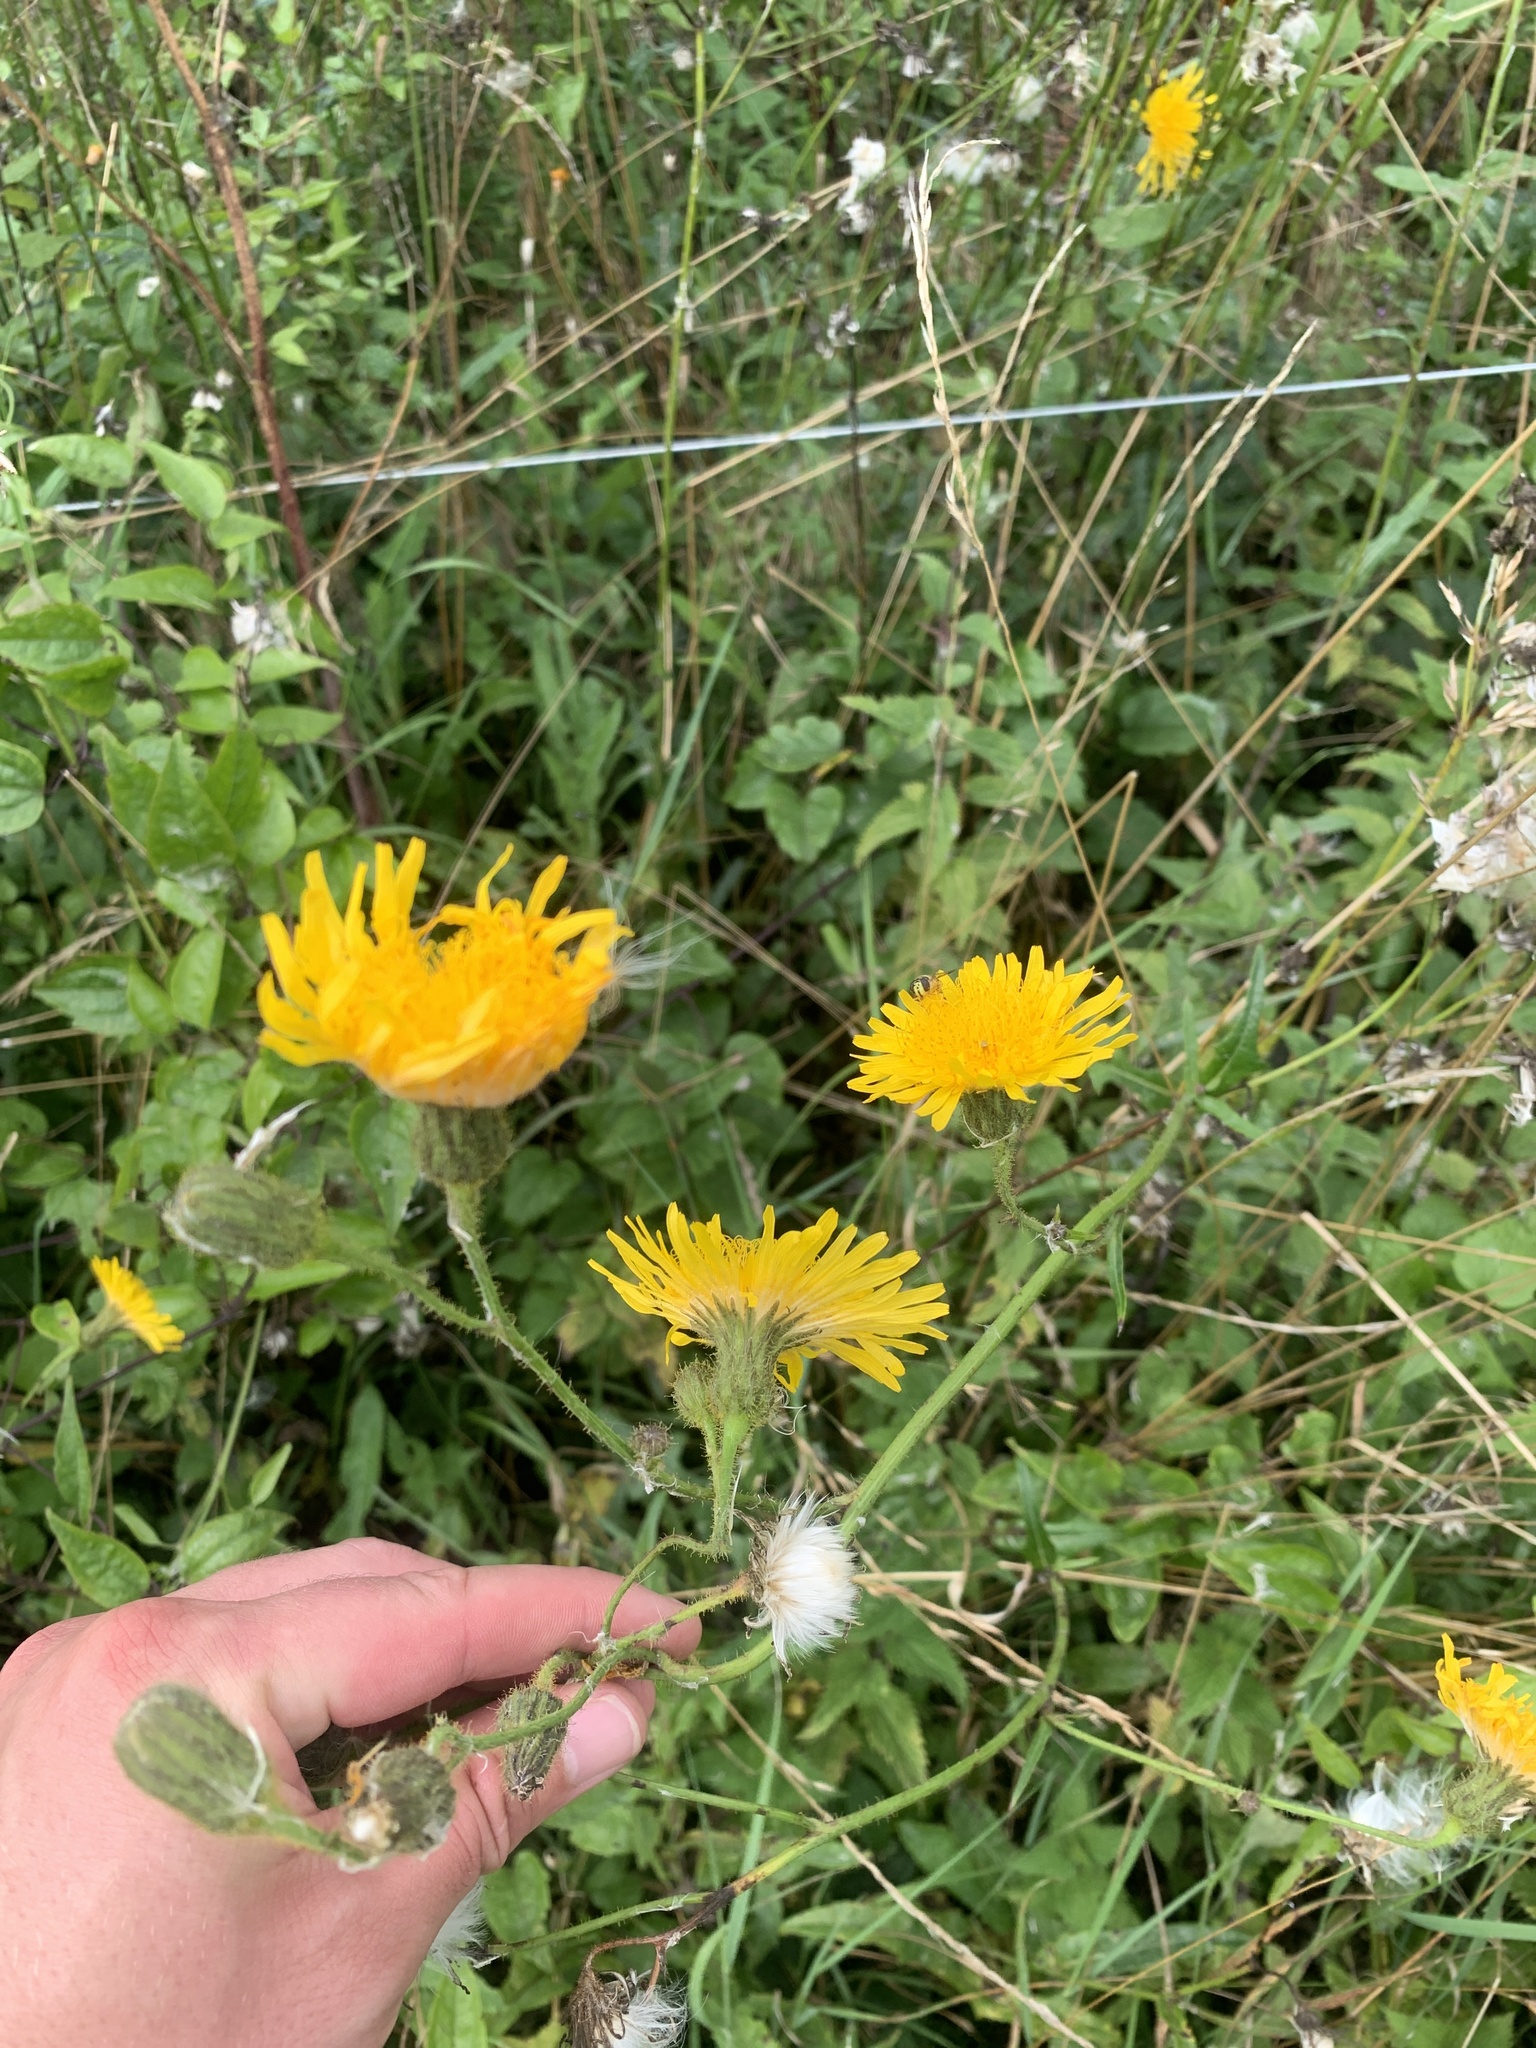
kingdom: Plantae
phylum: Tracheophyta
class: Magnoliopsida
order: Asterales
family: Asteraceae
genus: Sonchus
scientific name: Sonchus arvensis
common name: Perennial sow-thistle
